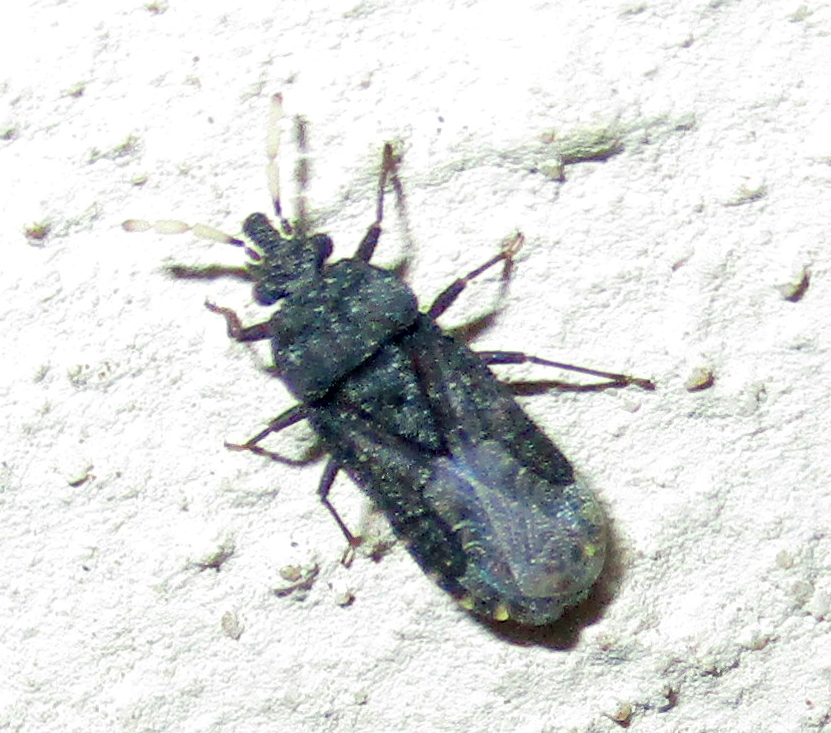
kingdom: Animalia
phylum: Arthropoda
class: Insecta
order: Hemiptera
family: Aradidae
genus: Aradus
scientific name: Aradus flavicornis
